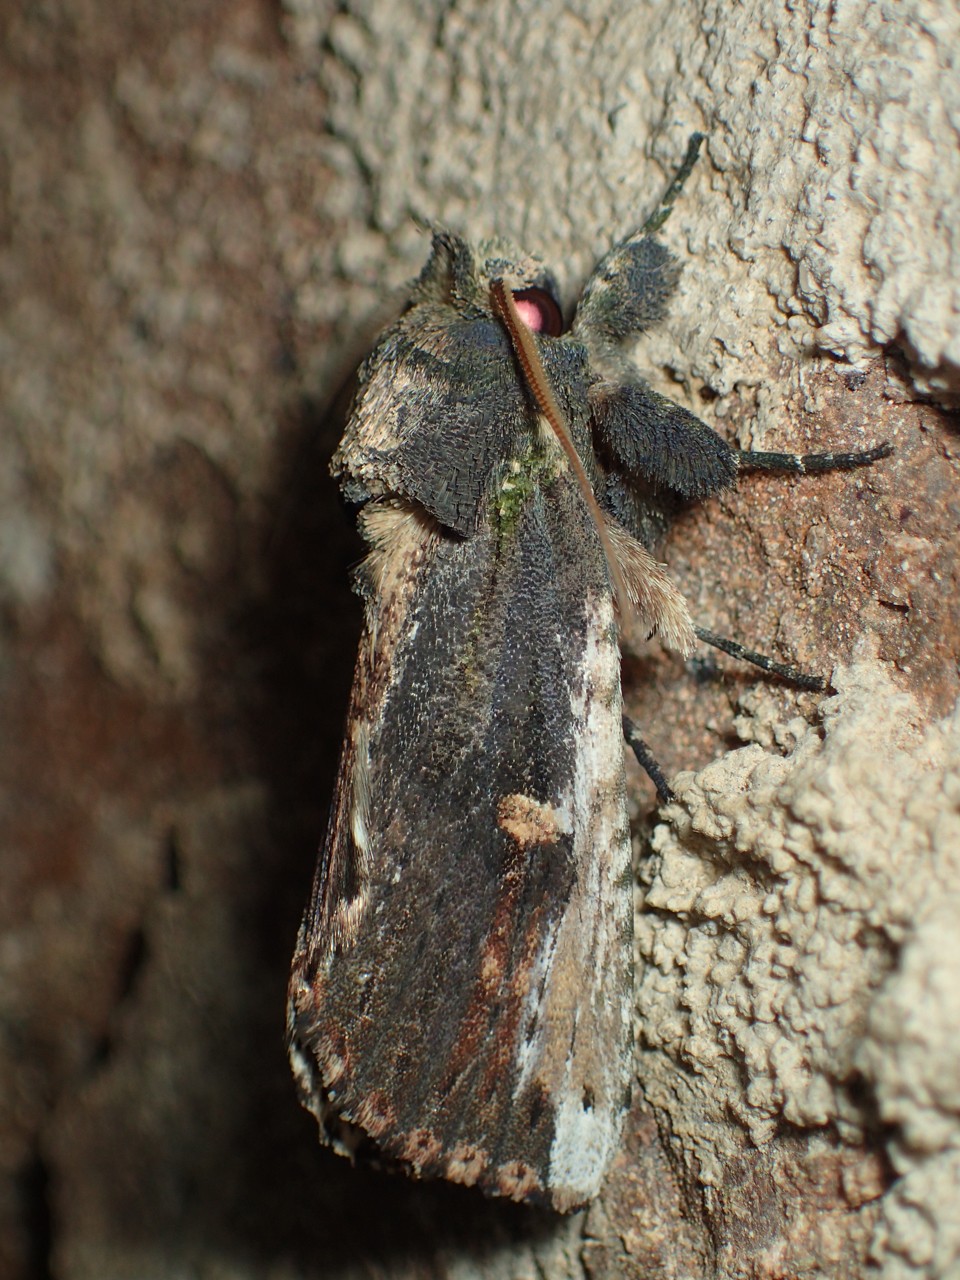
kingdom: Animalia
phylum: Arthropoda
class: Insecta
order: Lepidoptera
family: Notodontidae
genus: Schizura
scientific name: Schizura ipomaeae
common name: Morning-glory prominent
